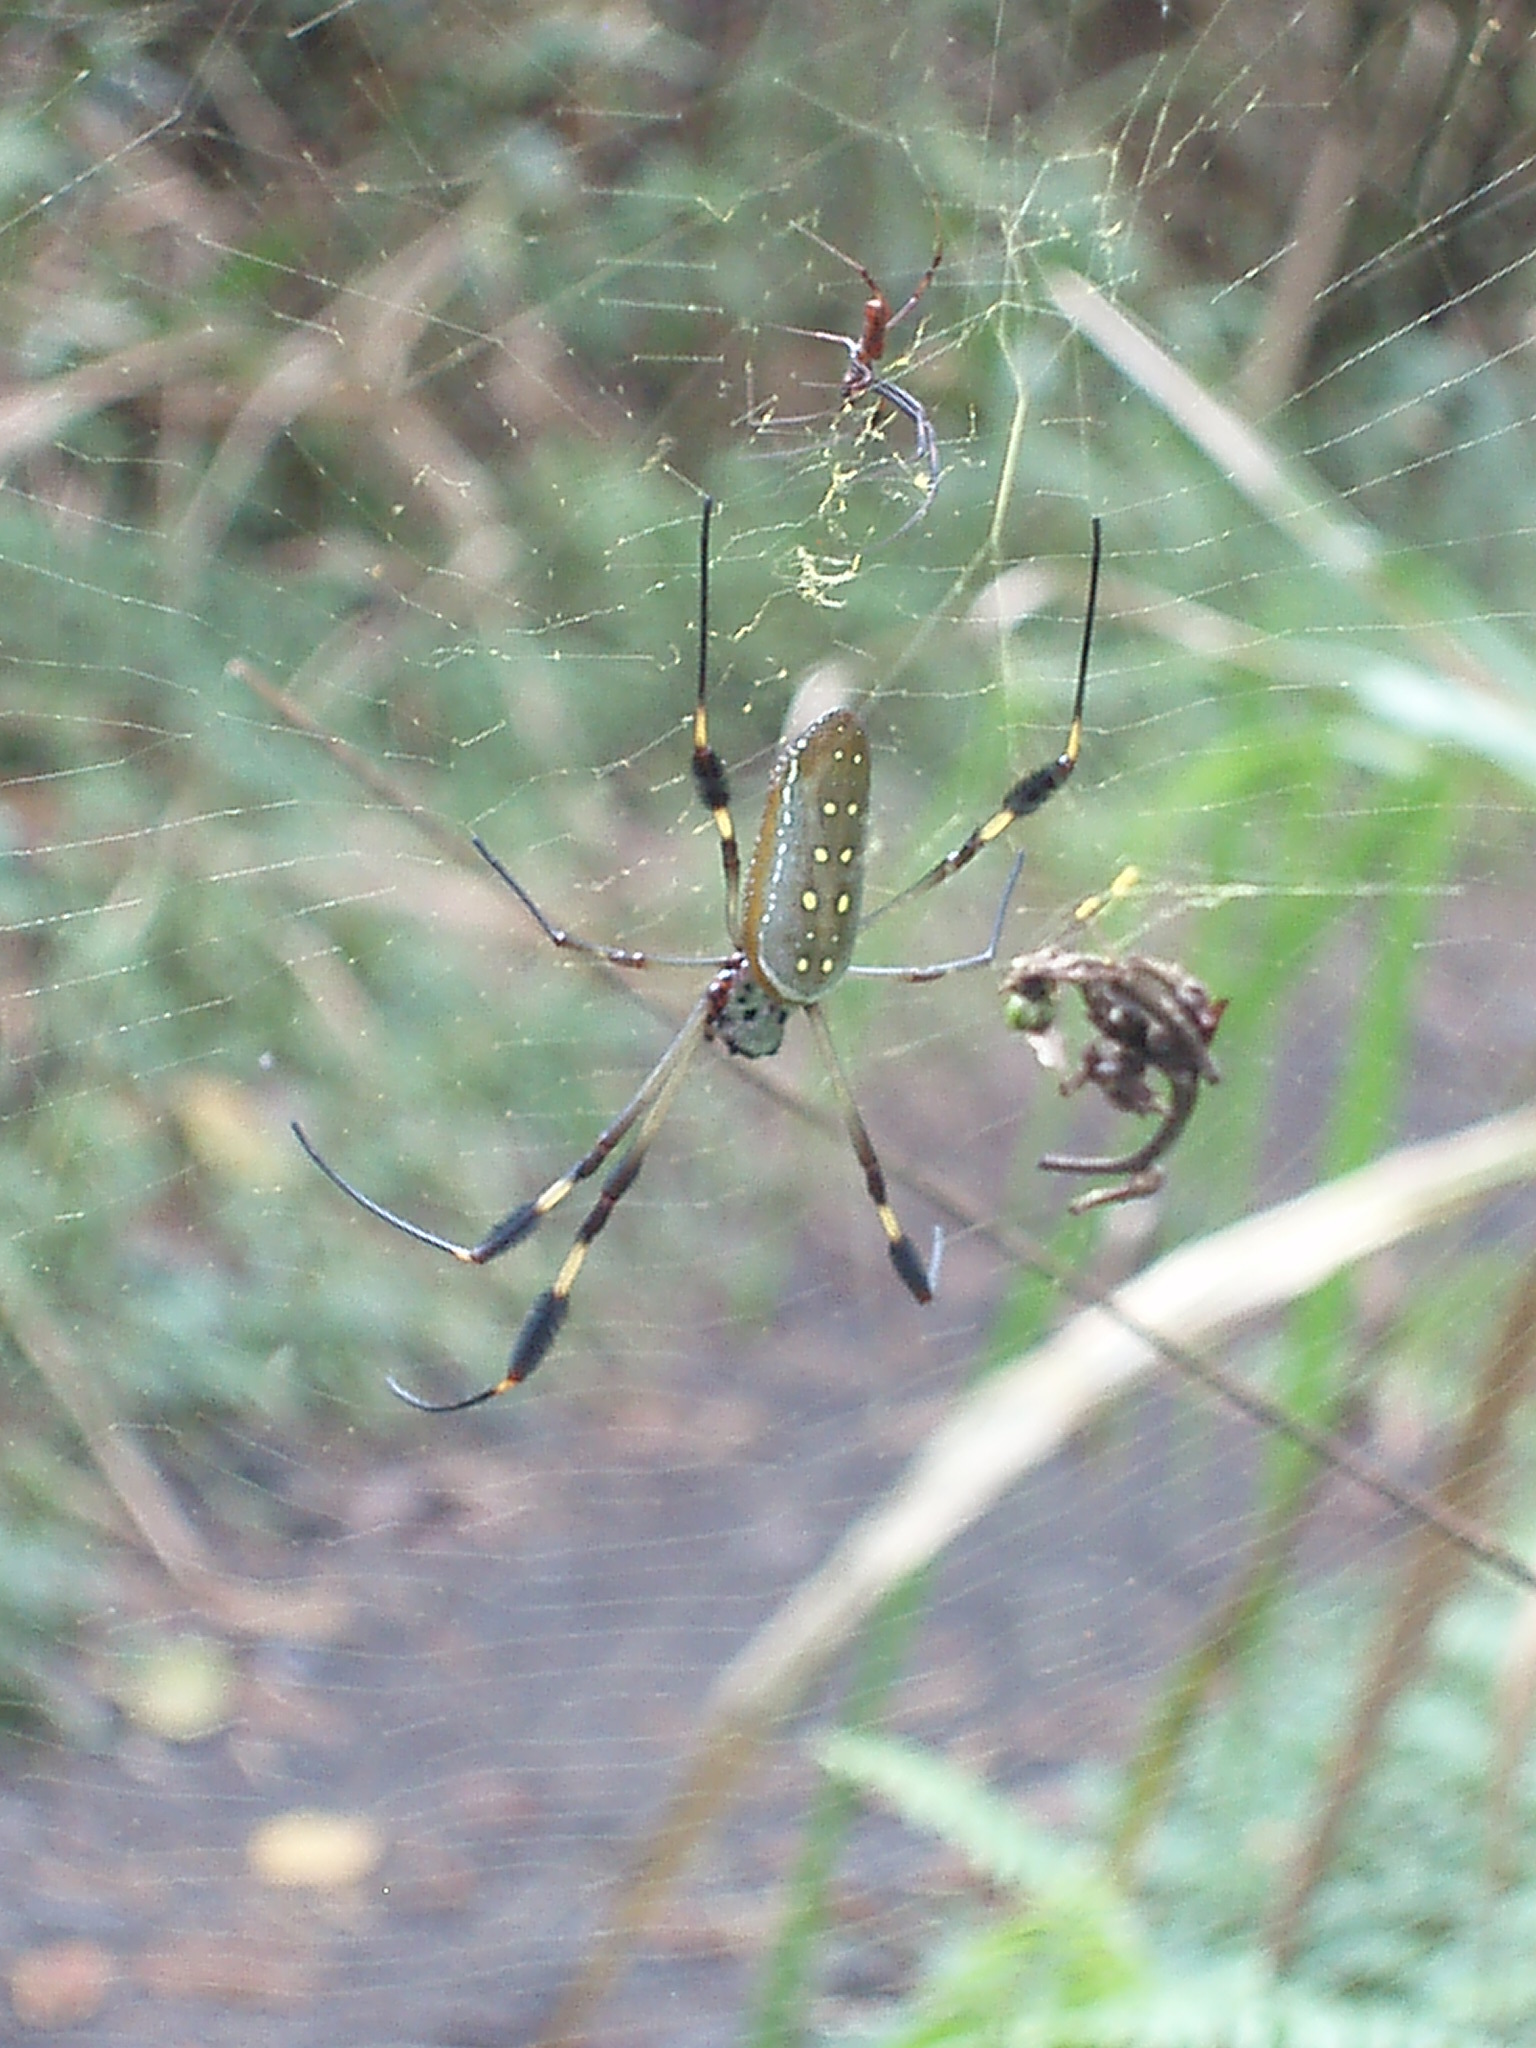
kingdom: Animalia
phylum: Arthropoda
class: Arachnida
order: Araneae
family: Araneidae
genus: Trichonephila
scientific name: Trichonephila clavipes
